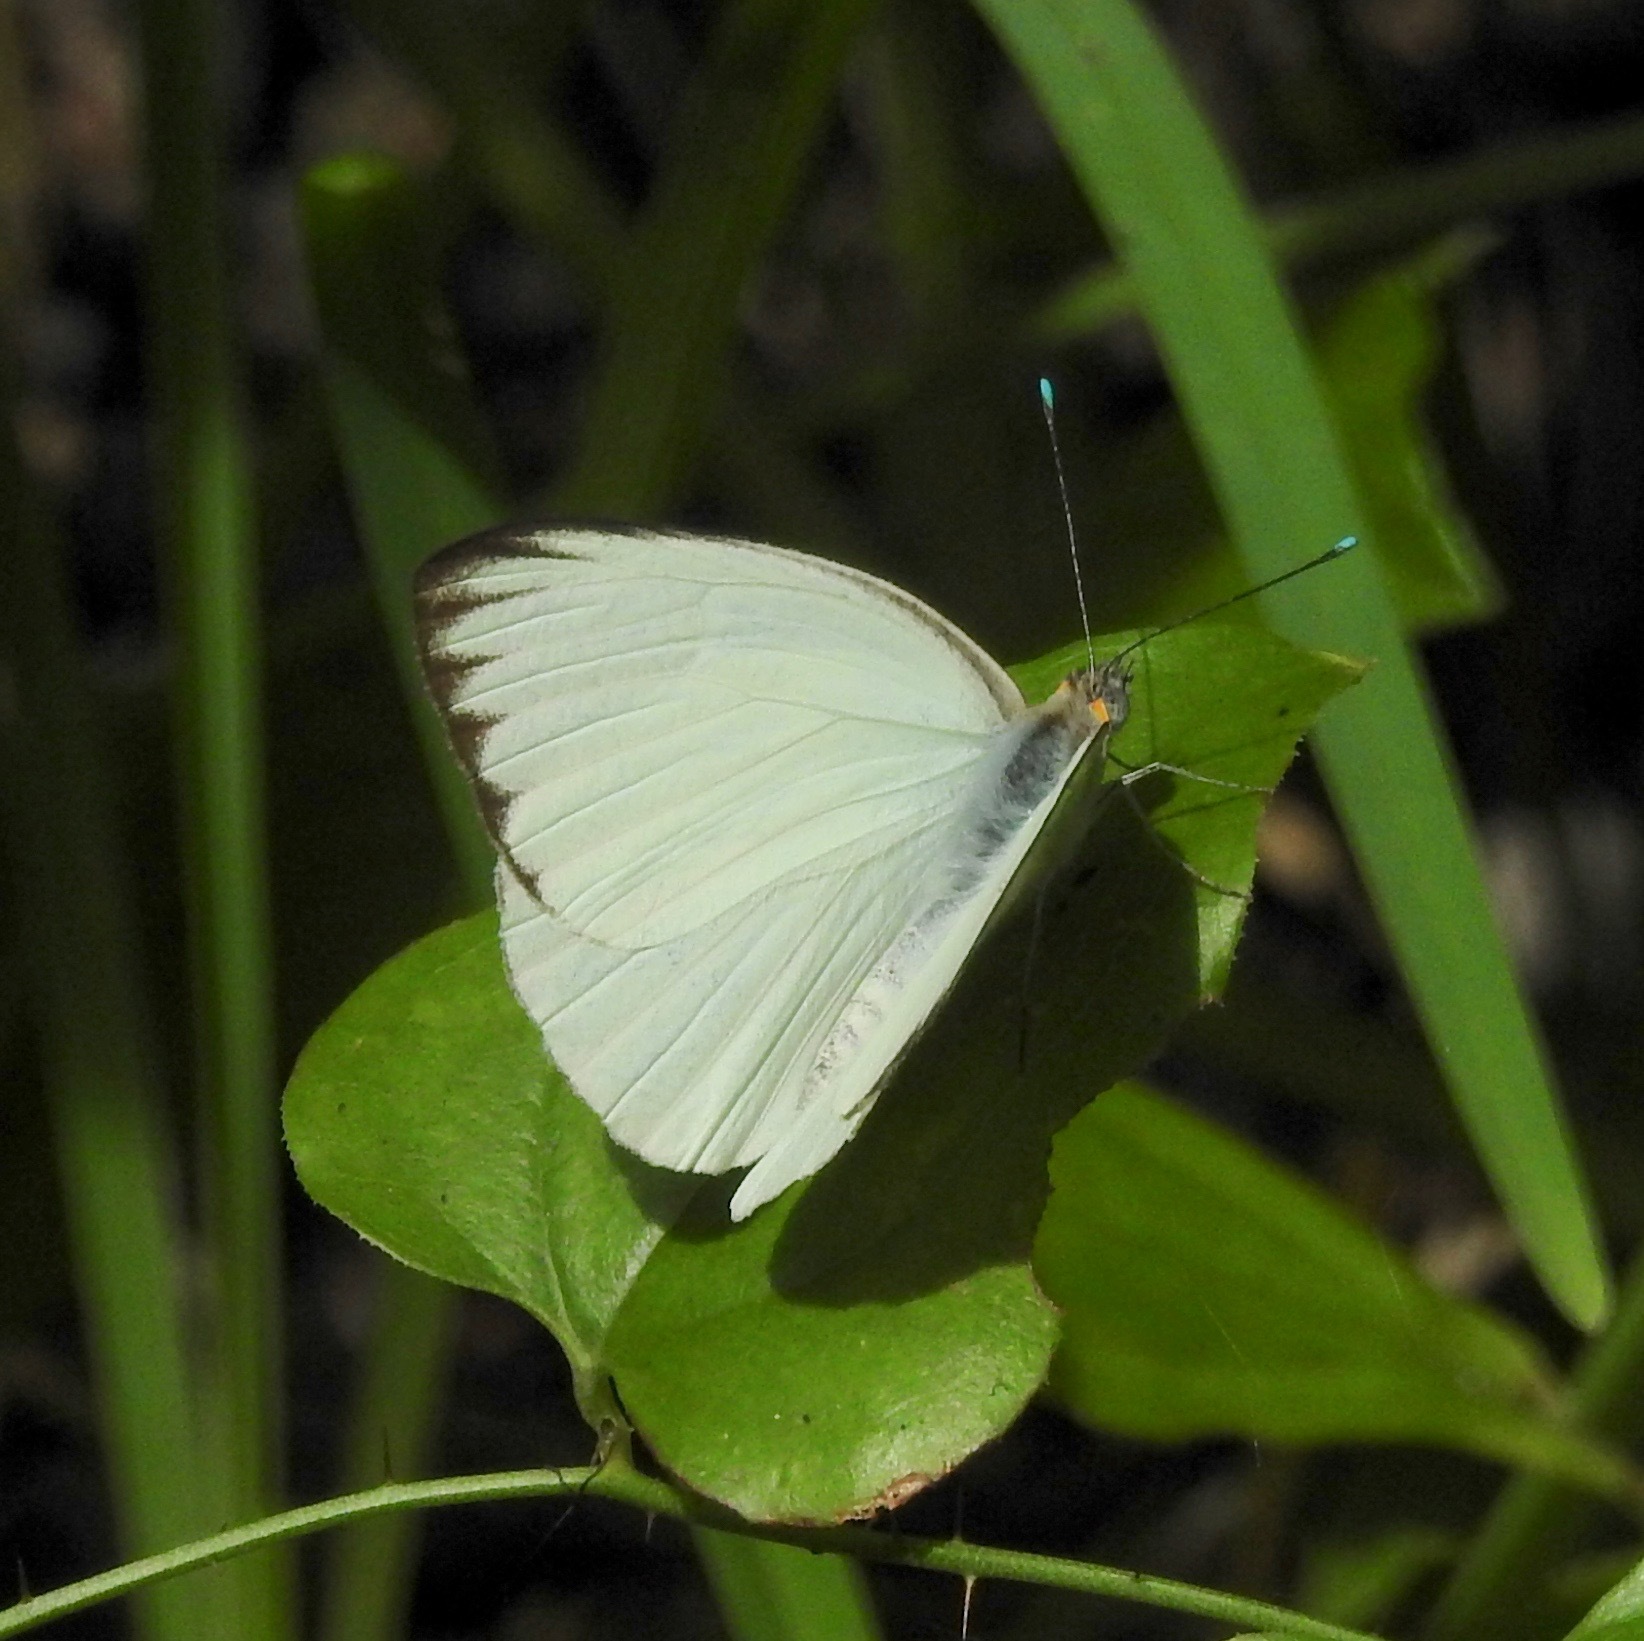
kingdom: Animalia
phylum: Arthropoda
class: Insecta
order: Lepidoptera
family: Pieridae
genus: Ascia
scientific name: Ascia monuste
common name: Great southern white
